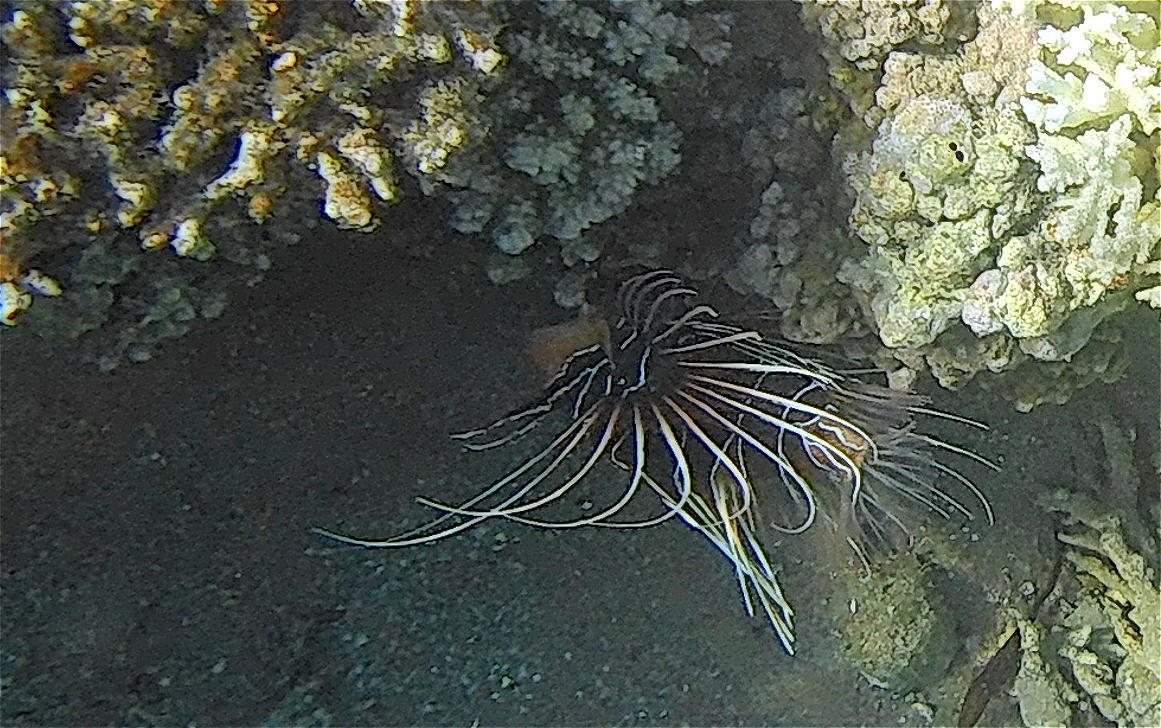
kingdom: Animalia
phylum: Chordata
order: Scorpaeniformes
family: Scorpaenidae
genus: Pterois
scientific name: Pterois cincta
